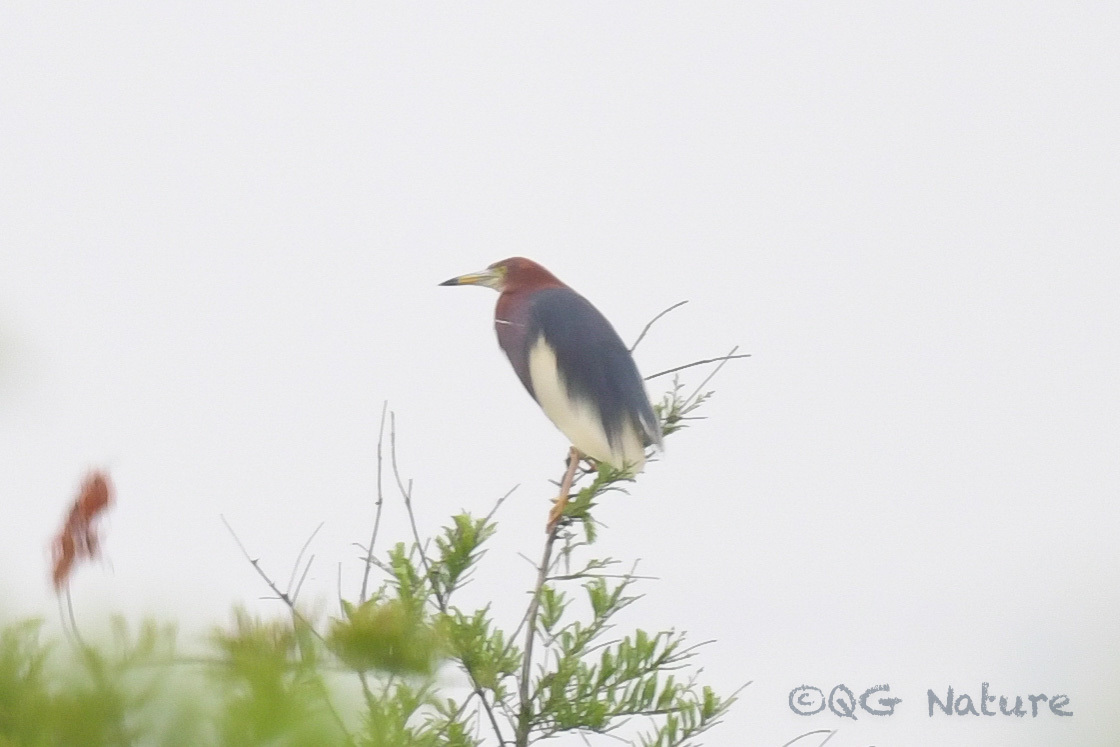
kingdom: Animalia
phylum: Chordata
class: Aves
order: Pelecaniformes
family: Ardeidae
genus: Ardeola
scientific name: Ardeola bacchus
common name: Chinese pond heron
